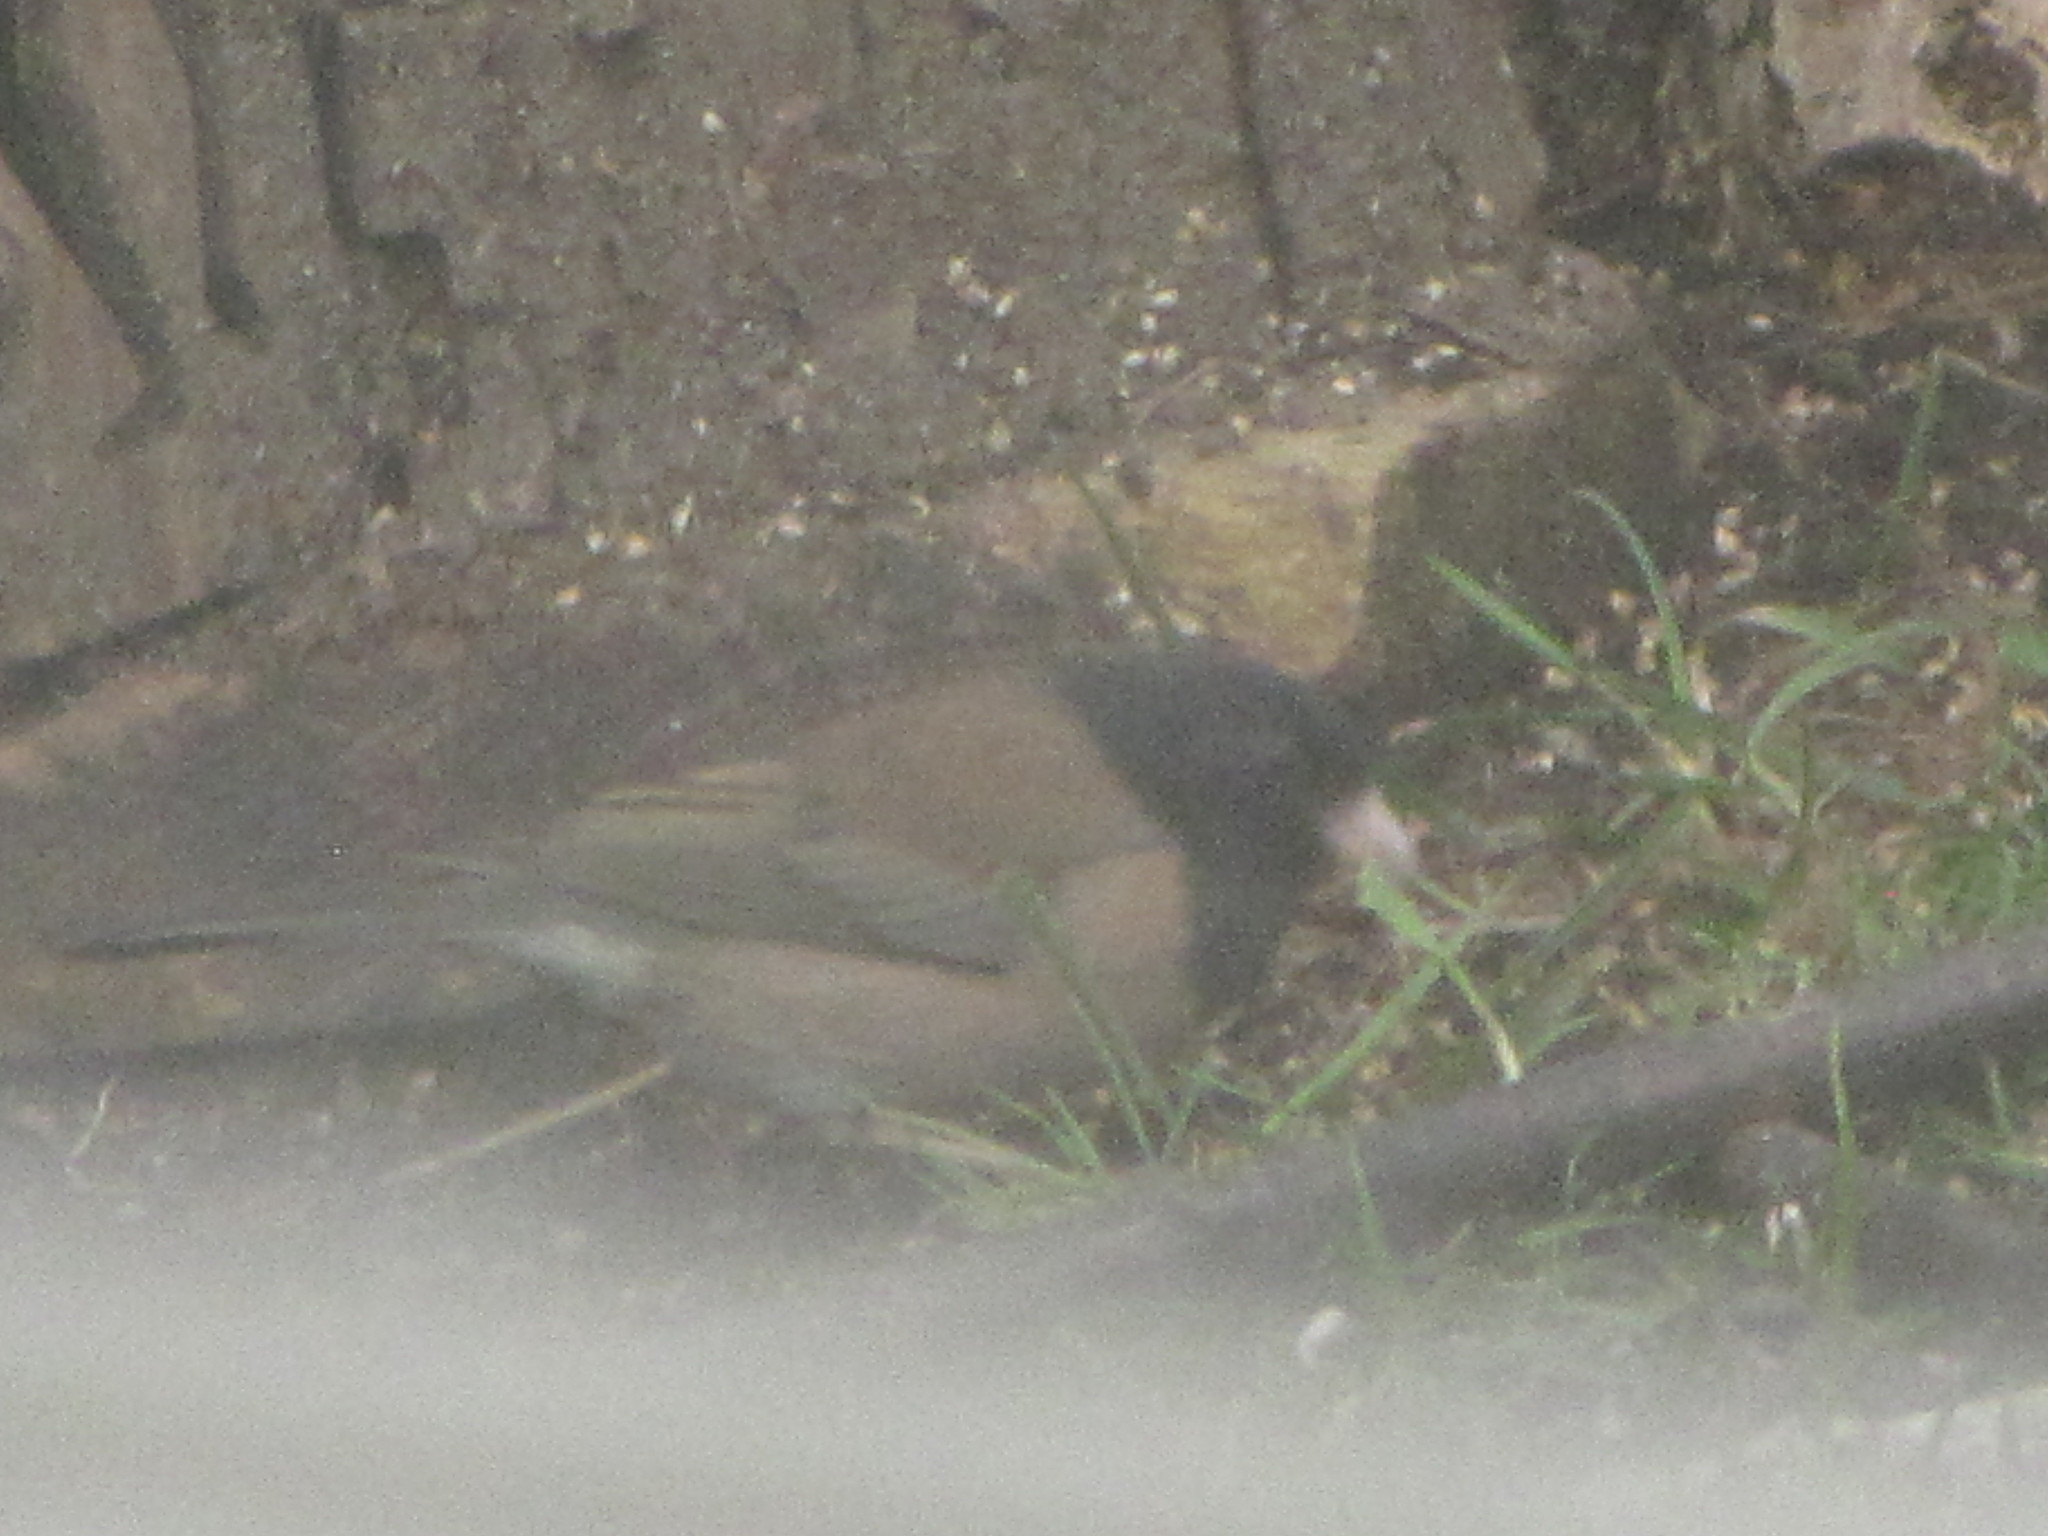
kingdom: Animalia
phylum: Chordata
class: Aves
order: Passeriformes
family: Passerellidae
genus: Junco
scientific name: Junco hyemalis
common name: Dark-eyed junco
